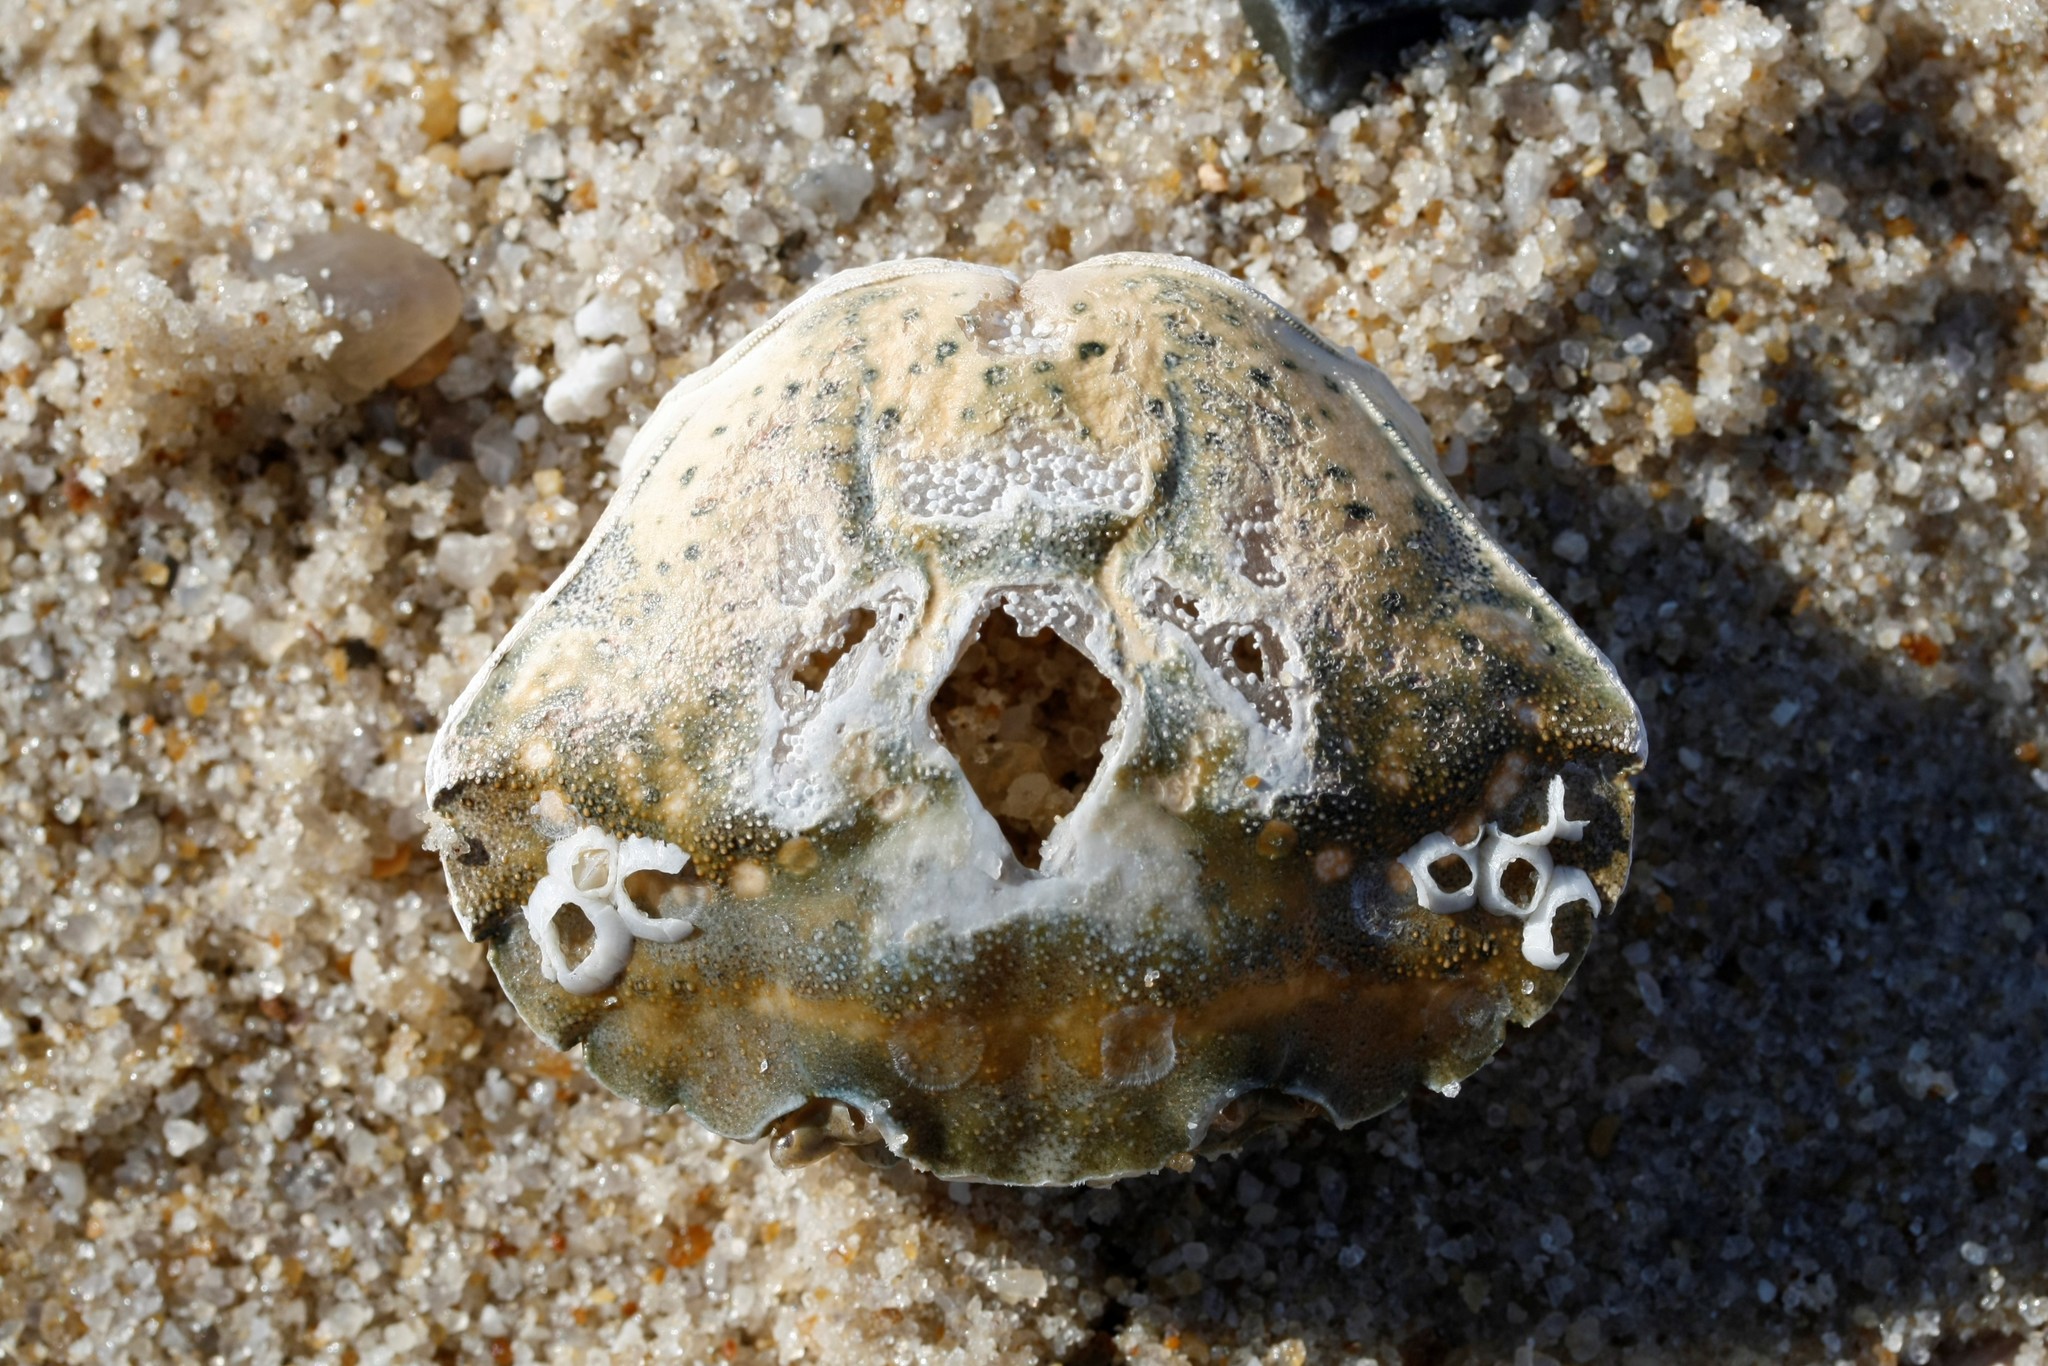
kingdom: Animalia
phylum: Arthropoda
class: Malacostraca
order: Decapoda
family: Carcinidae
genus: Carcinus
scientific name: Carcinus maenas
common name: European green crab
